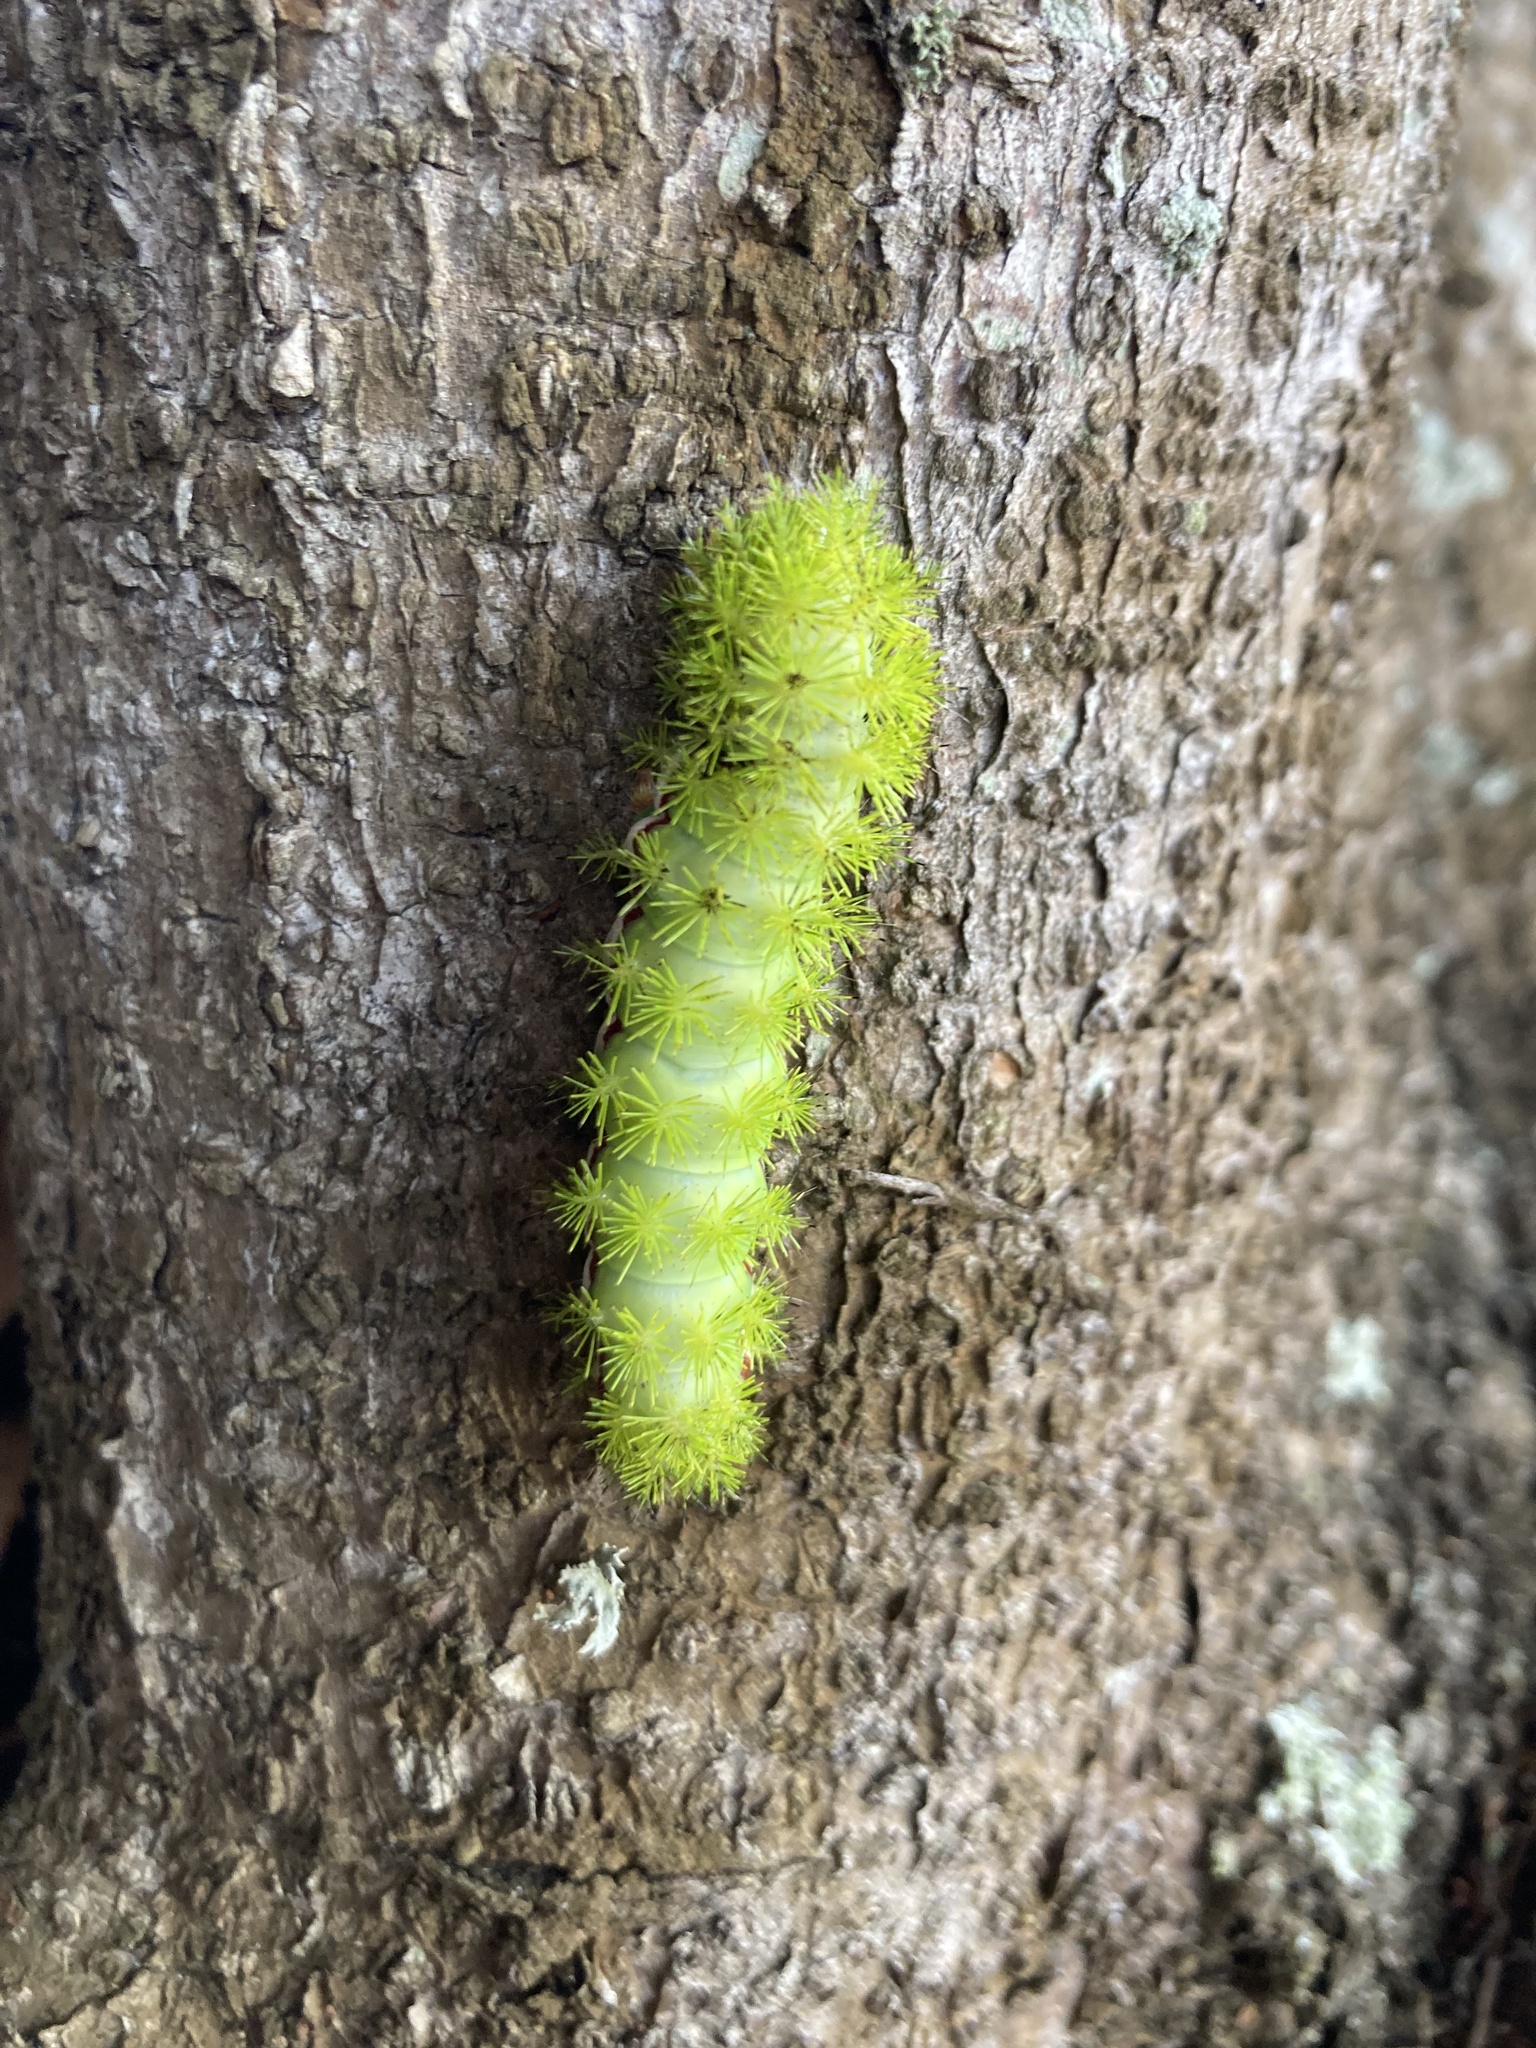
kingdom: Animalia
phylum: Arthropoda
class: Insecta
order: Lepidoptera
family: Saturniidae
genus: Automeris
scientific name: Automeris io
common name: Io moth
